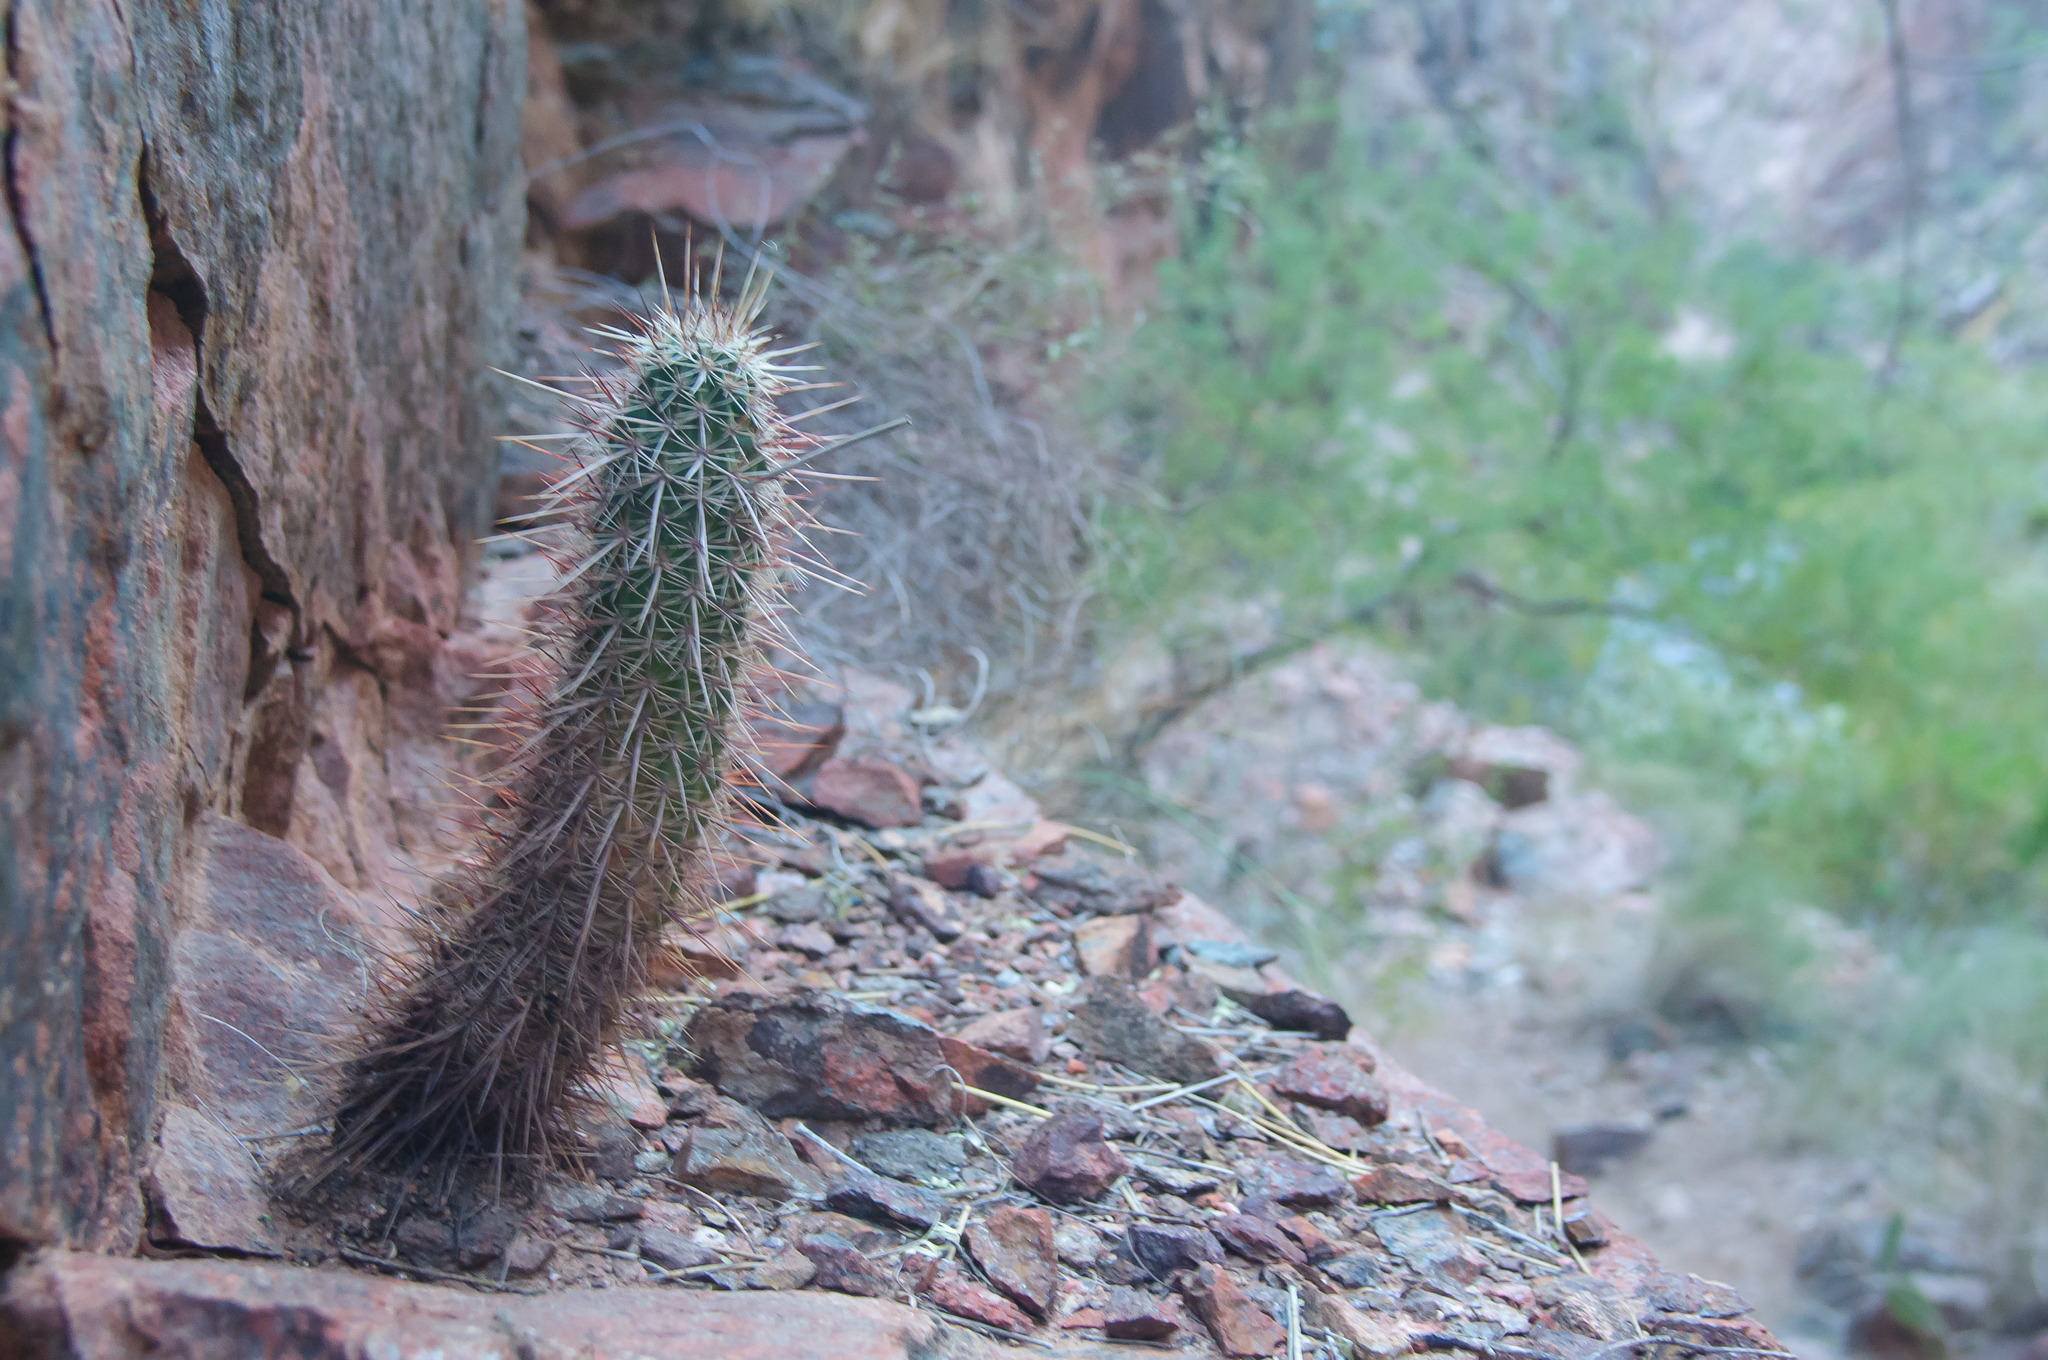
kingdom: Plantae
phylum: Tracheophyta
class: Magnoliopsida
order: Caryophyllales
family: Cactaceae
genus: Echinocereus
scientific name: Echinocereus engelmannii
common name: Engelmann's hedgehog cactus
